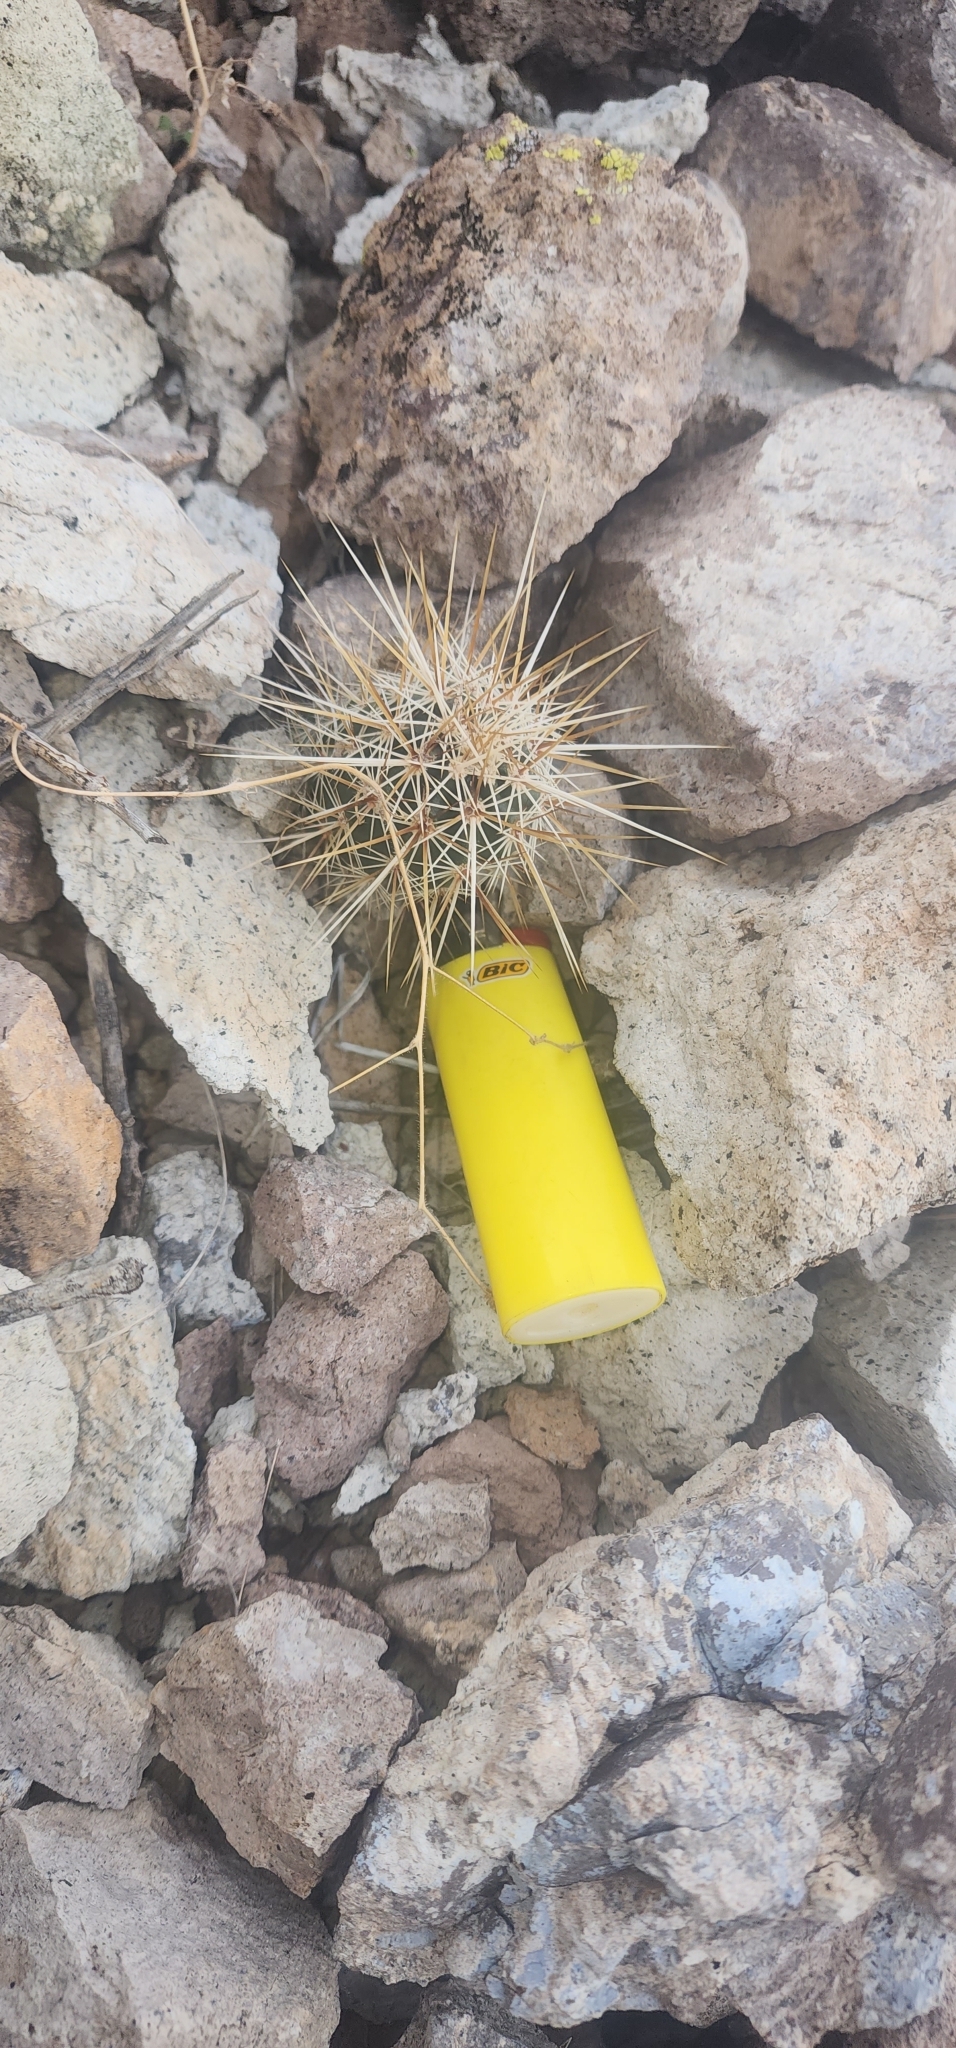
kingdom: Plantae
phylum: Tracheophyta
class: Magnoliopsida
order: Caryophyllales
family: Cactaceae
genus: Echinocereus
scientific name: Echinocereus engelmannii
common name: Engelmann's hedgehog cactus
